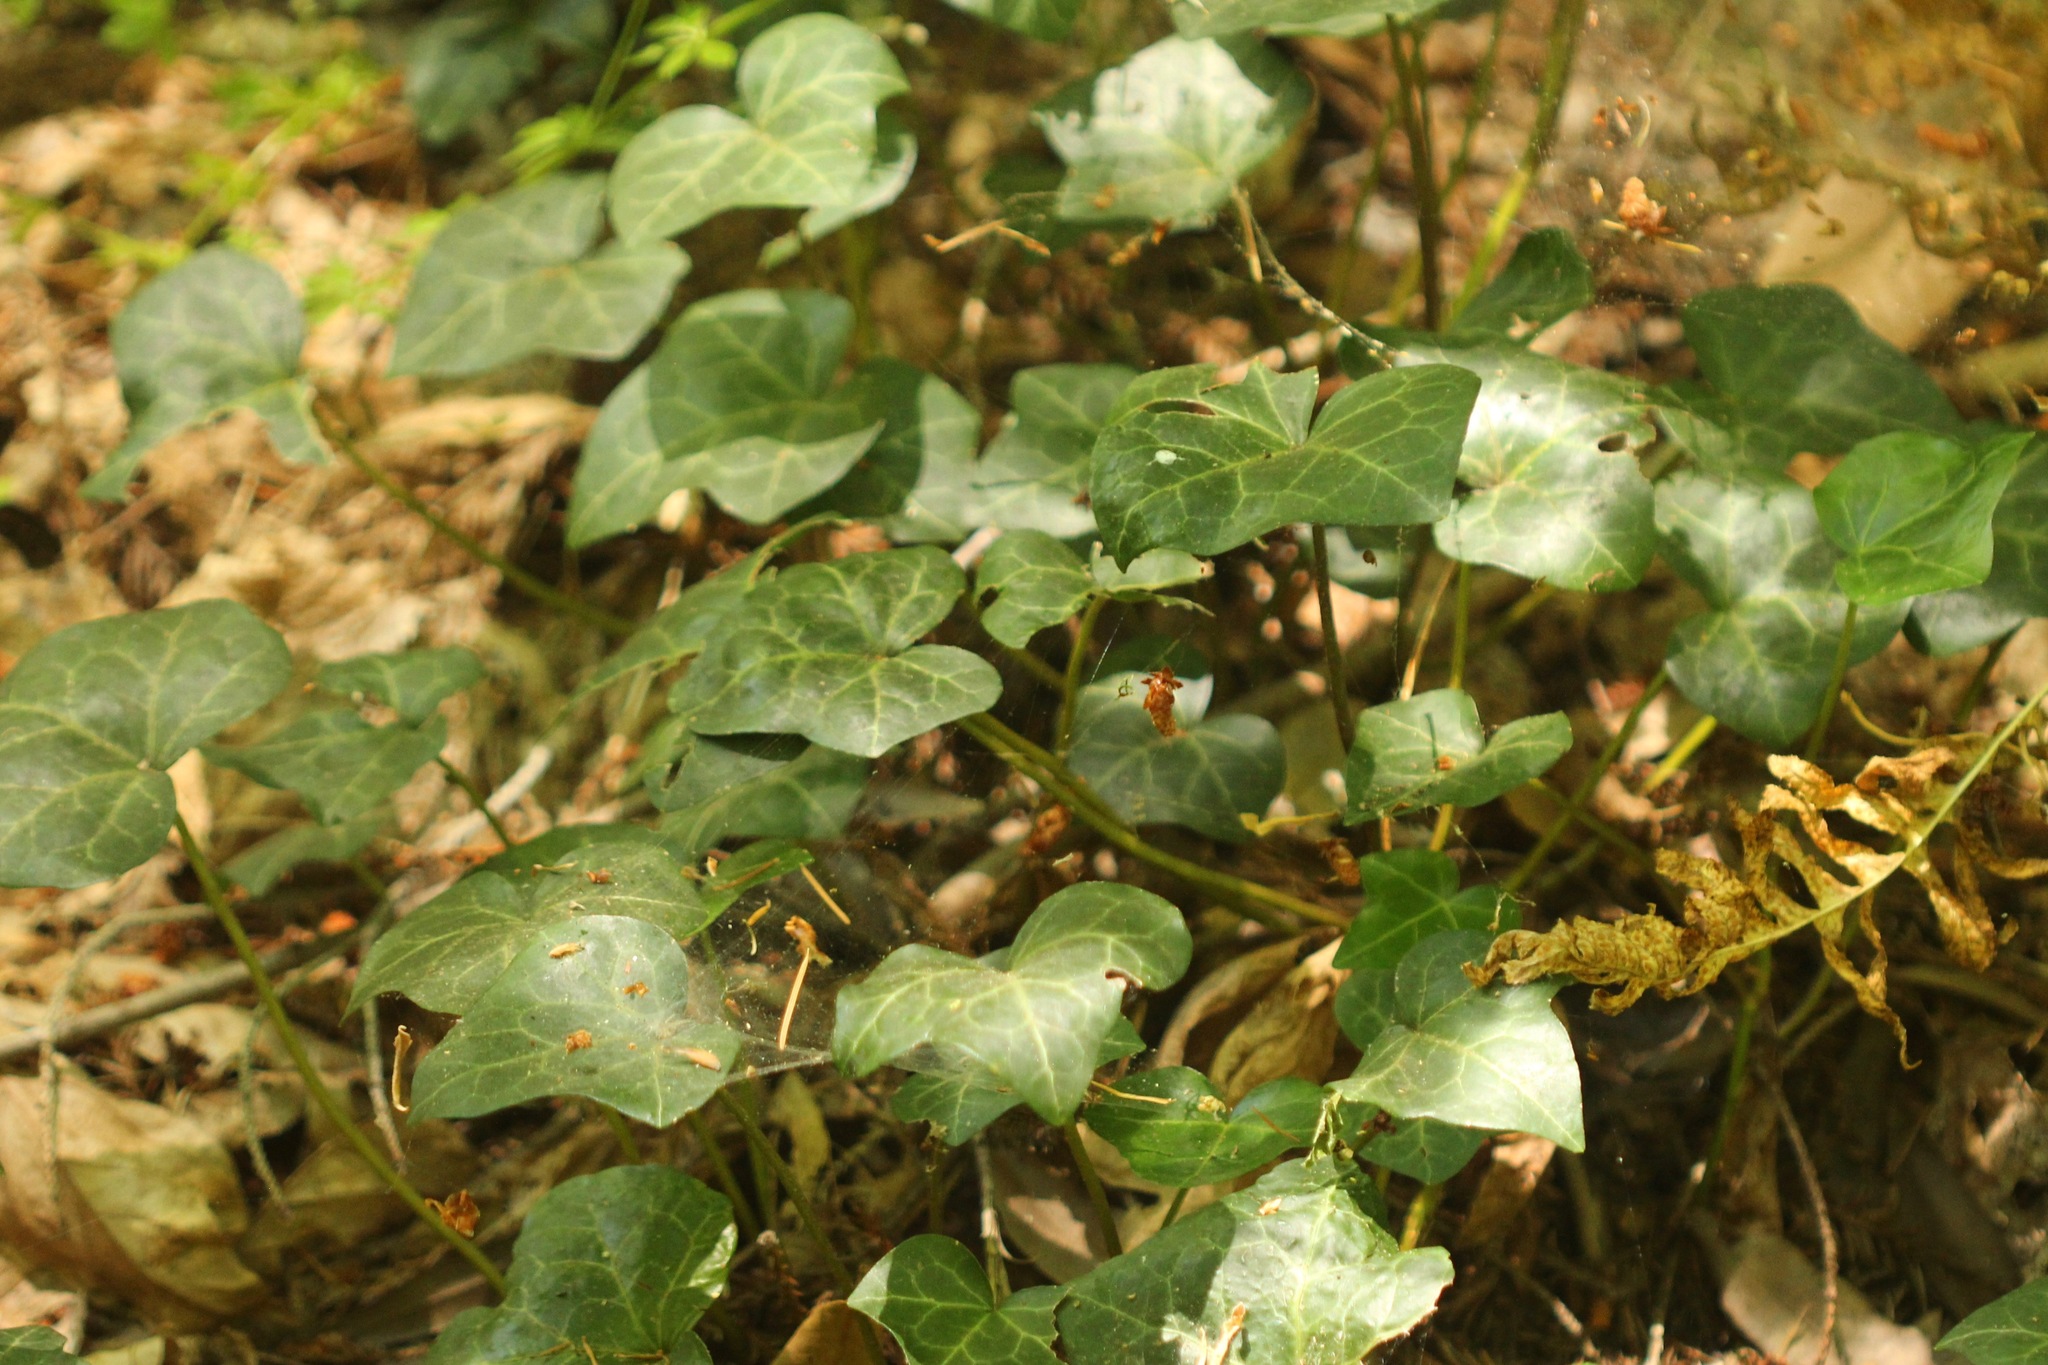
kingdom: Plantae
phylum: Tracheophyta
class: Magnoliopsida
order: Apiales
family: Araliaceae
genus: Hedera
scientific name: Hedera helix
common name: Ivy
